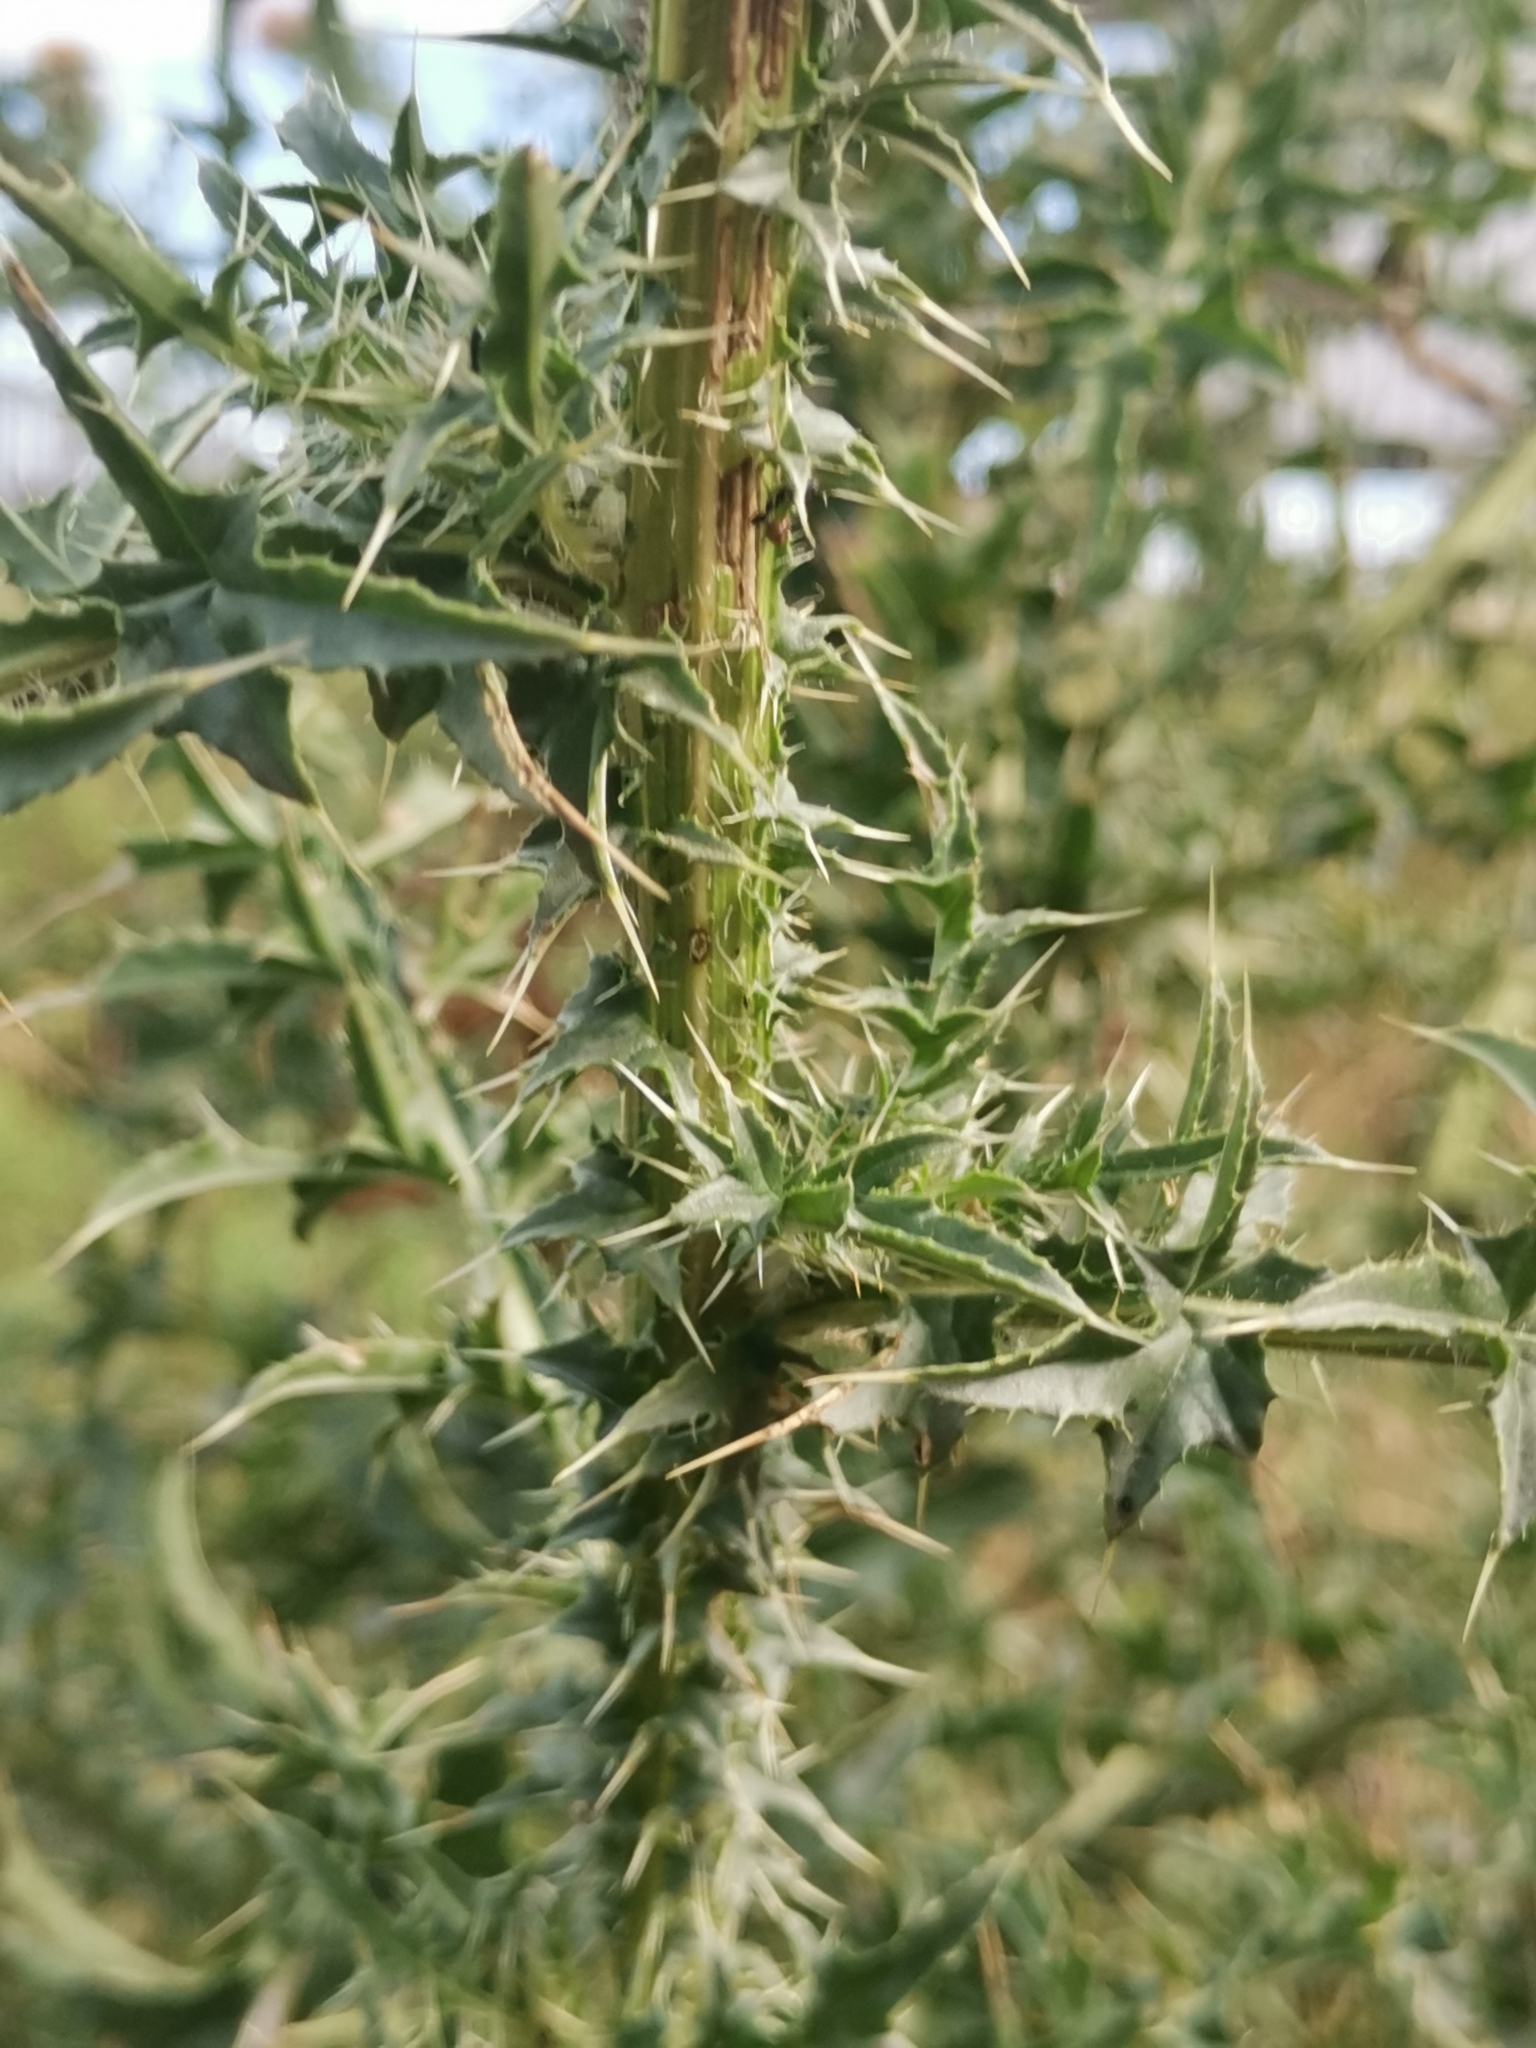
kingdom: Plantae
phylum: Tracheophyta
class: Magnoliopsida
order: Asterales
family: Asteraceae
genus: Cirsium
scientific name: Cirsium vulgare
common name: Bull thistle
